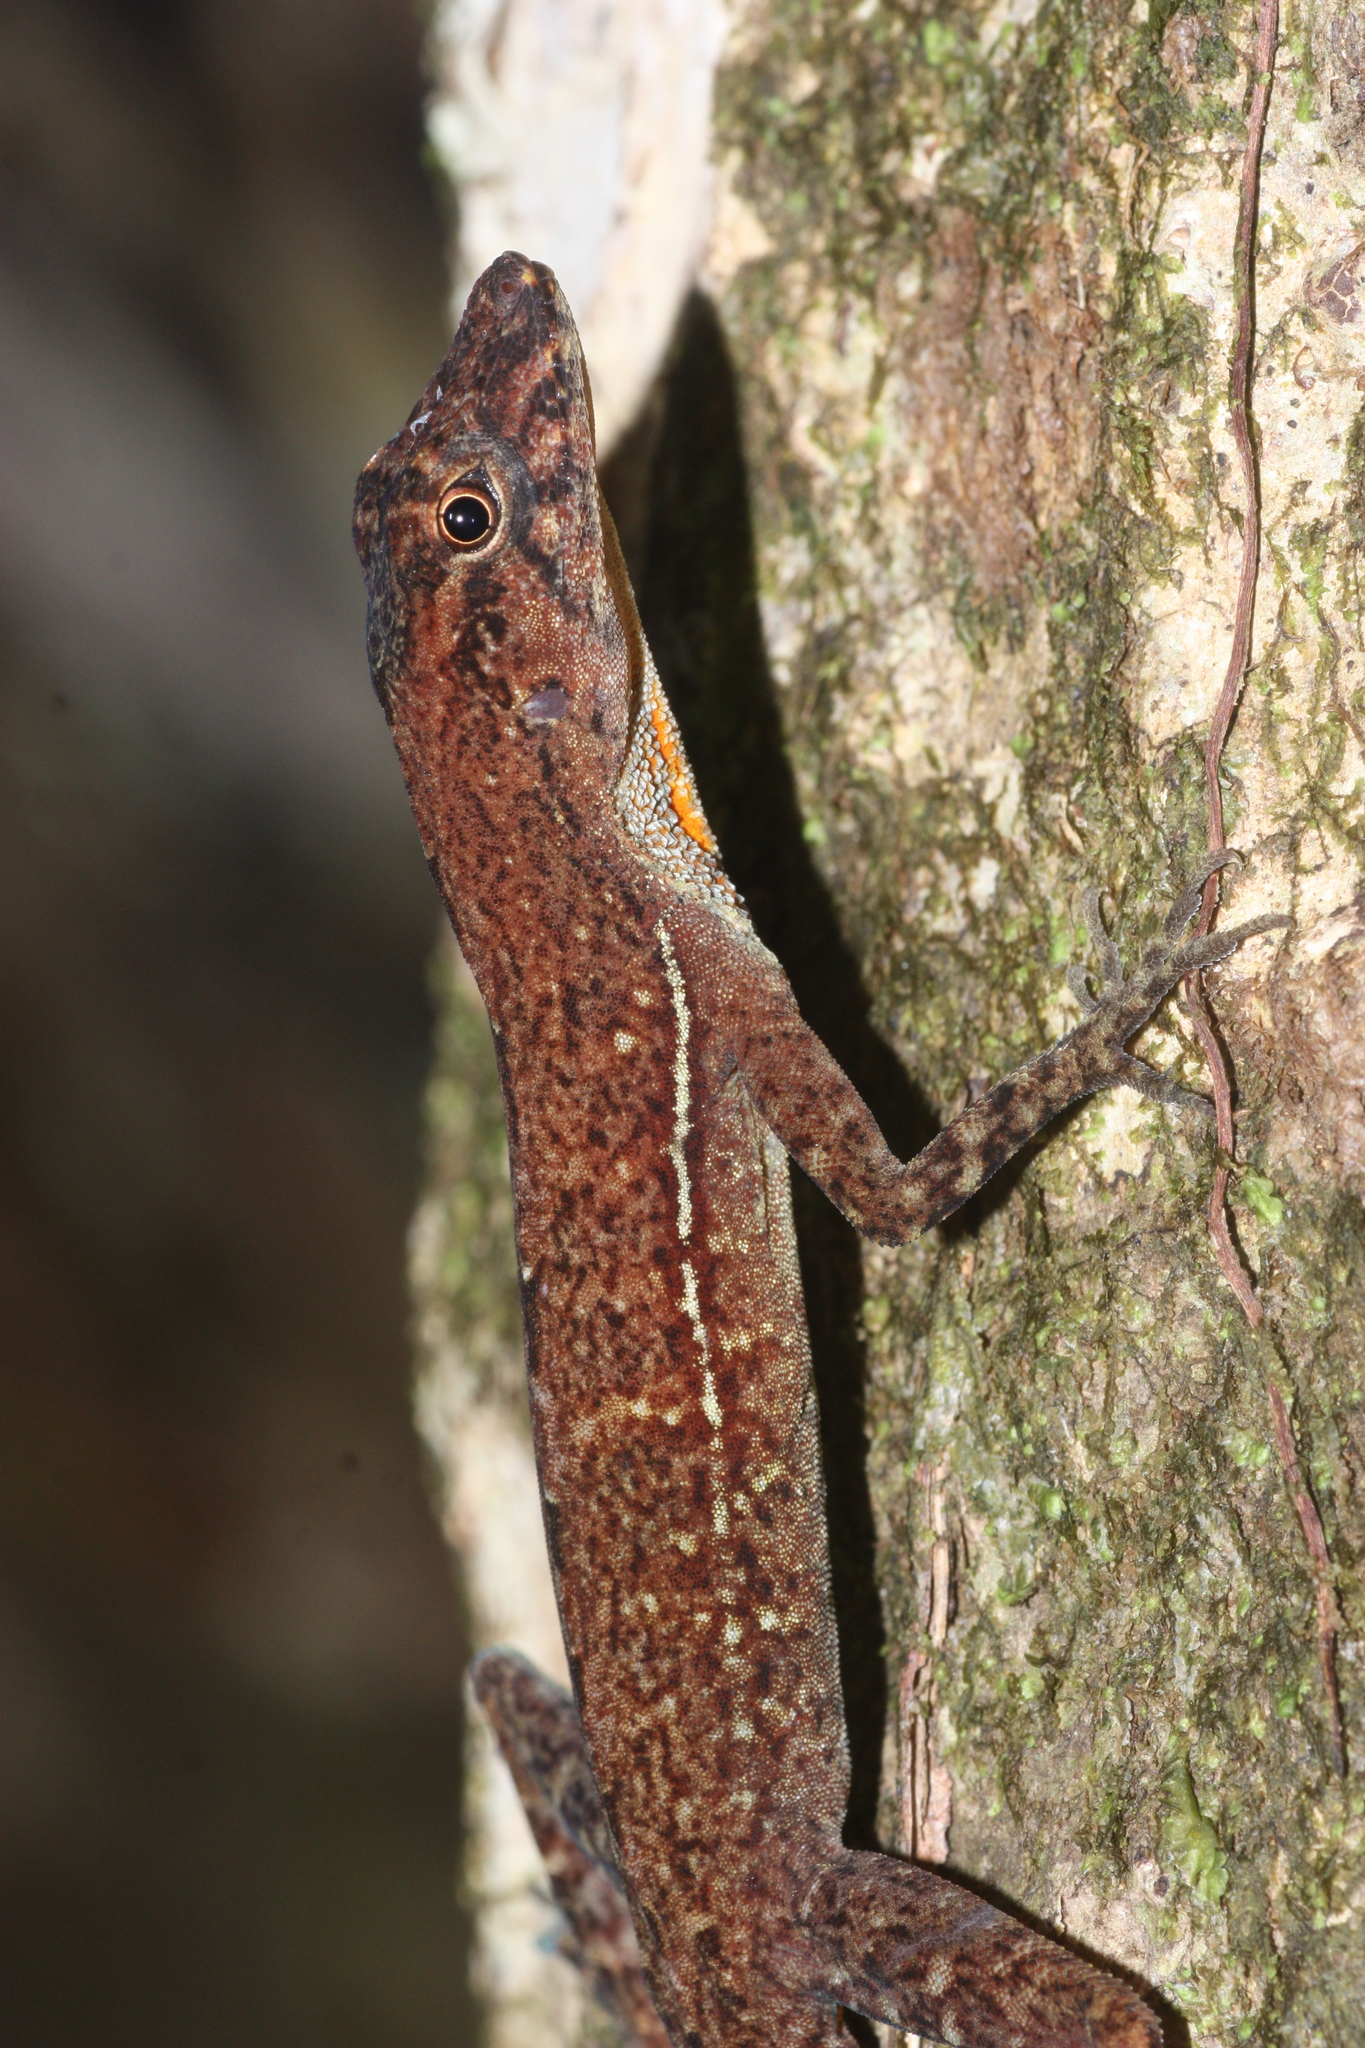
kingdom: Animalia
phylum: Chordata
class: Squamata
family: Dactyloidae
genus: Anolis
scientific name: Anolis osa
